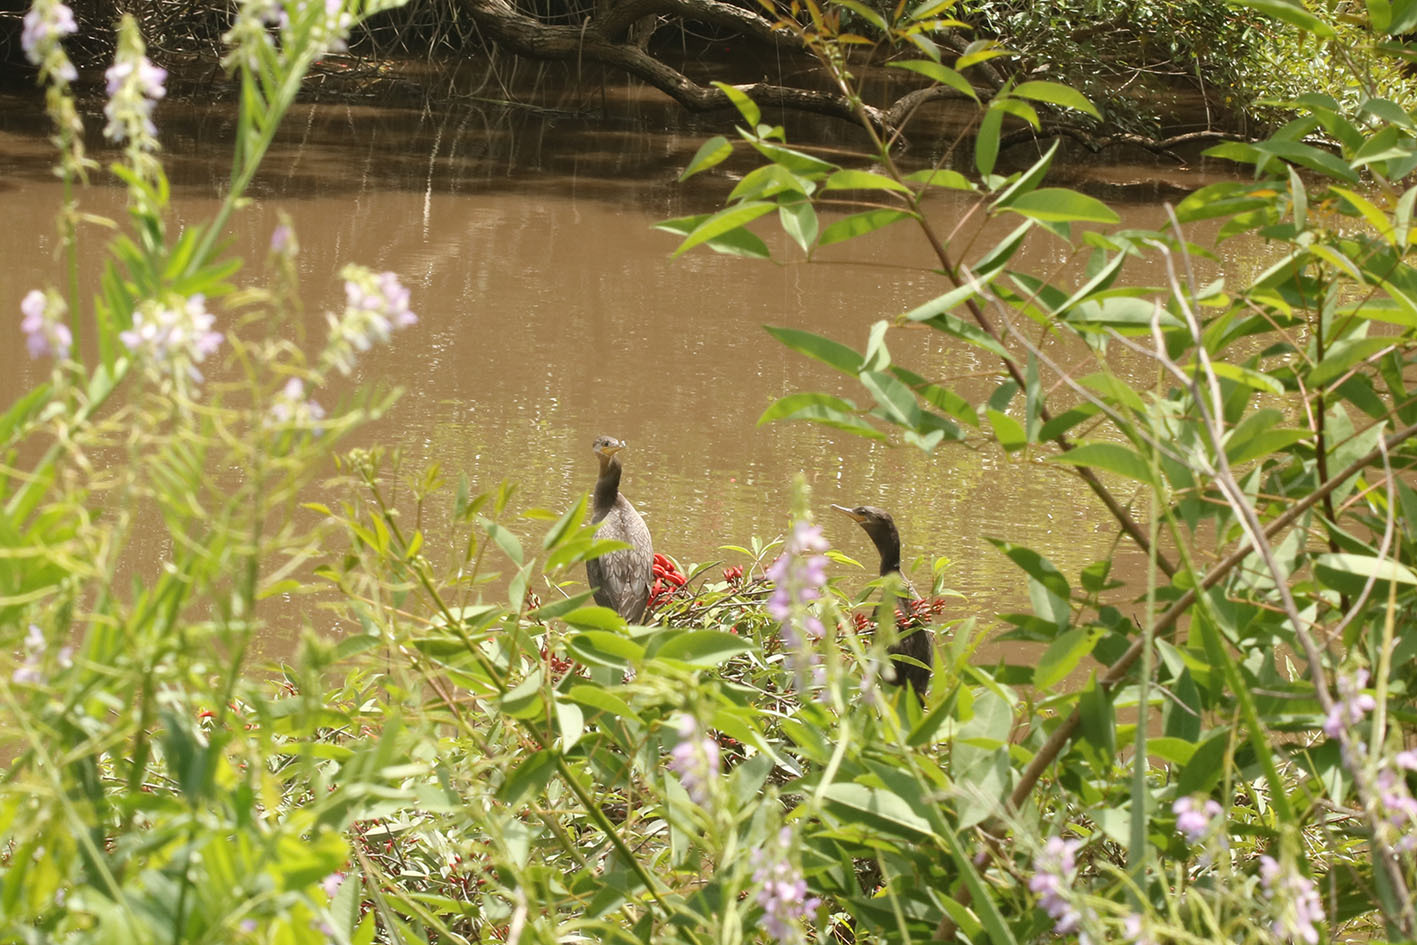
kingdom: Animalia
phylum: Chordata
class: Aves
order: Suliformes
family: Phalacrocoracidae
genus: Phalacrocorax
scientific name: Phalacrocorax brasilianus
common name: Neotropic cormorant
